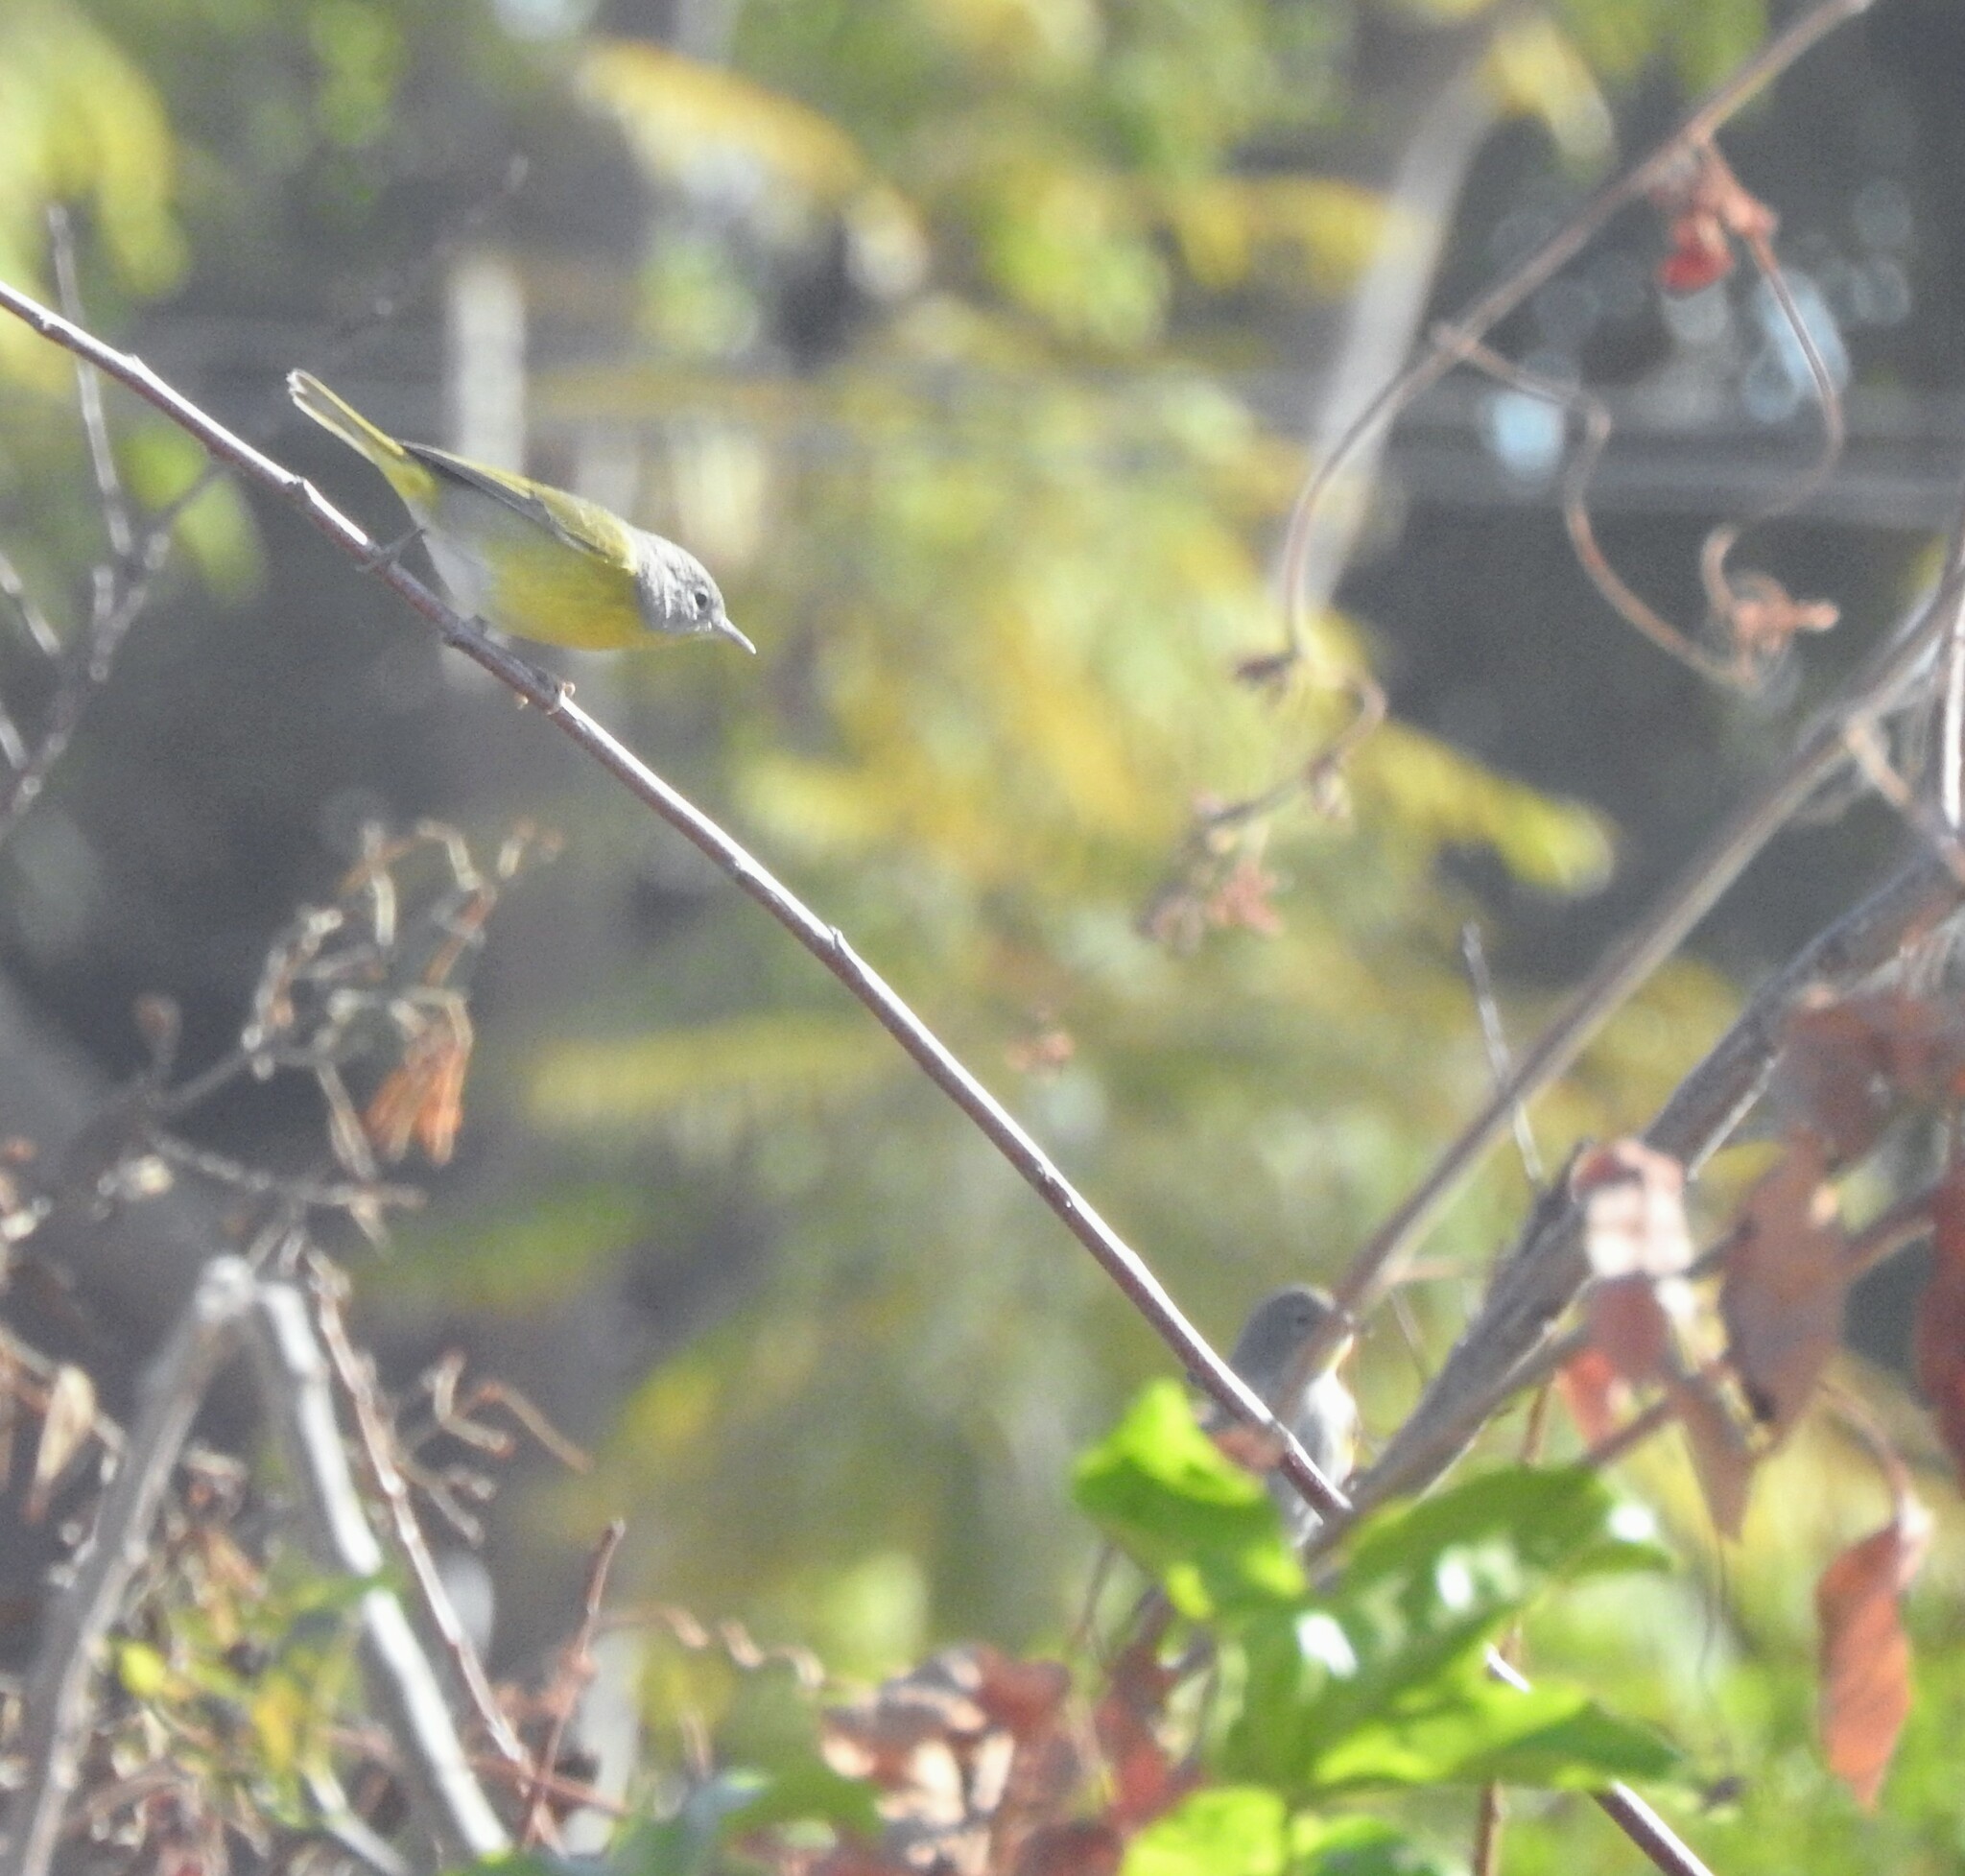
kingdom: Animalia
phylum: Chordata
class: Aves
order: Passeriformes
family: Parulidae
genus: Leiothlypis
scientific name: Leiothlypis ruficapilla
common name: Nashville warbler
